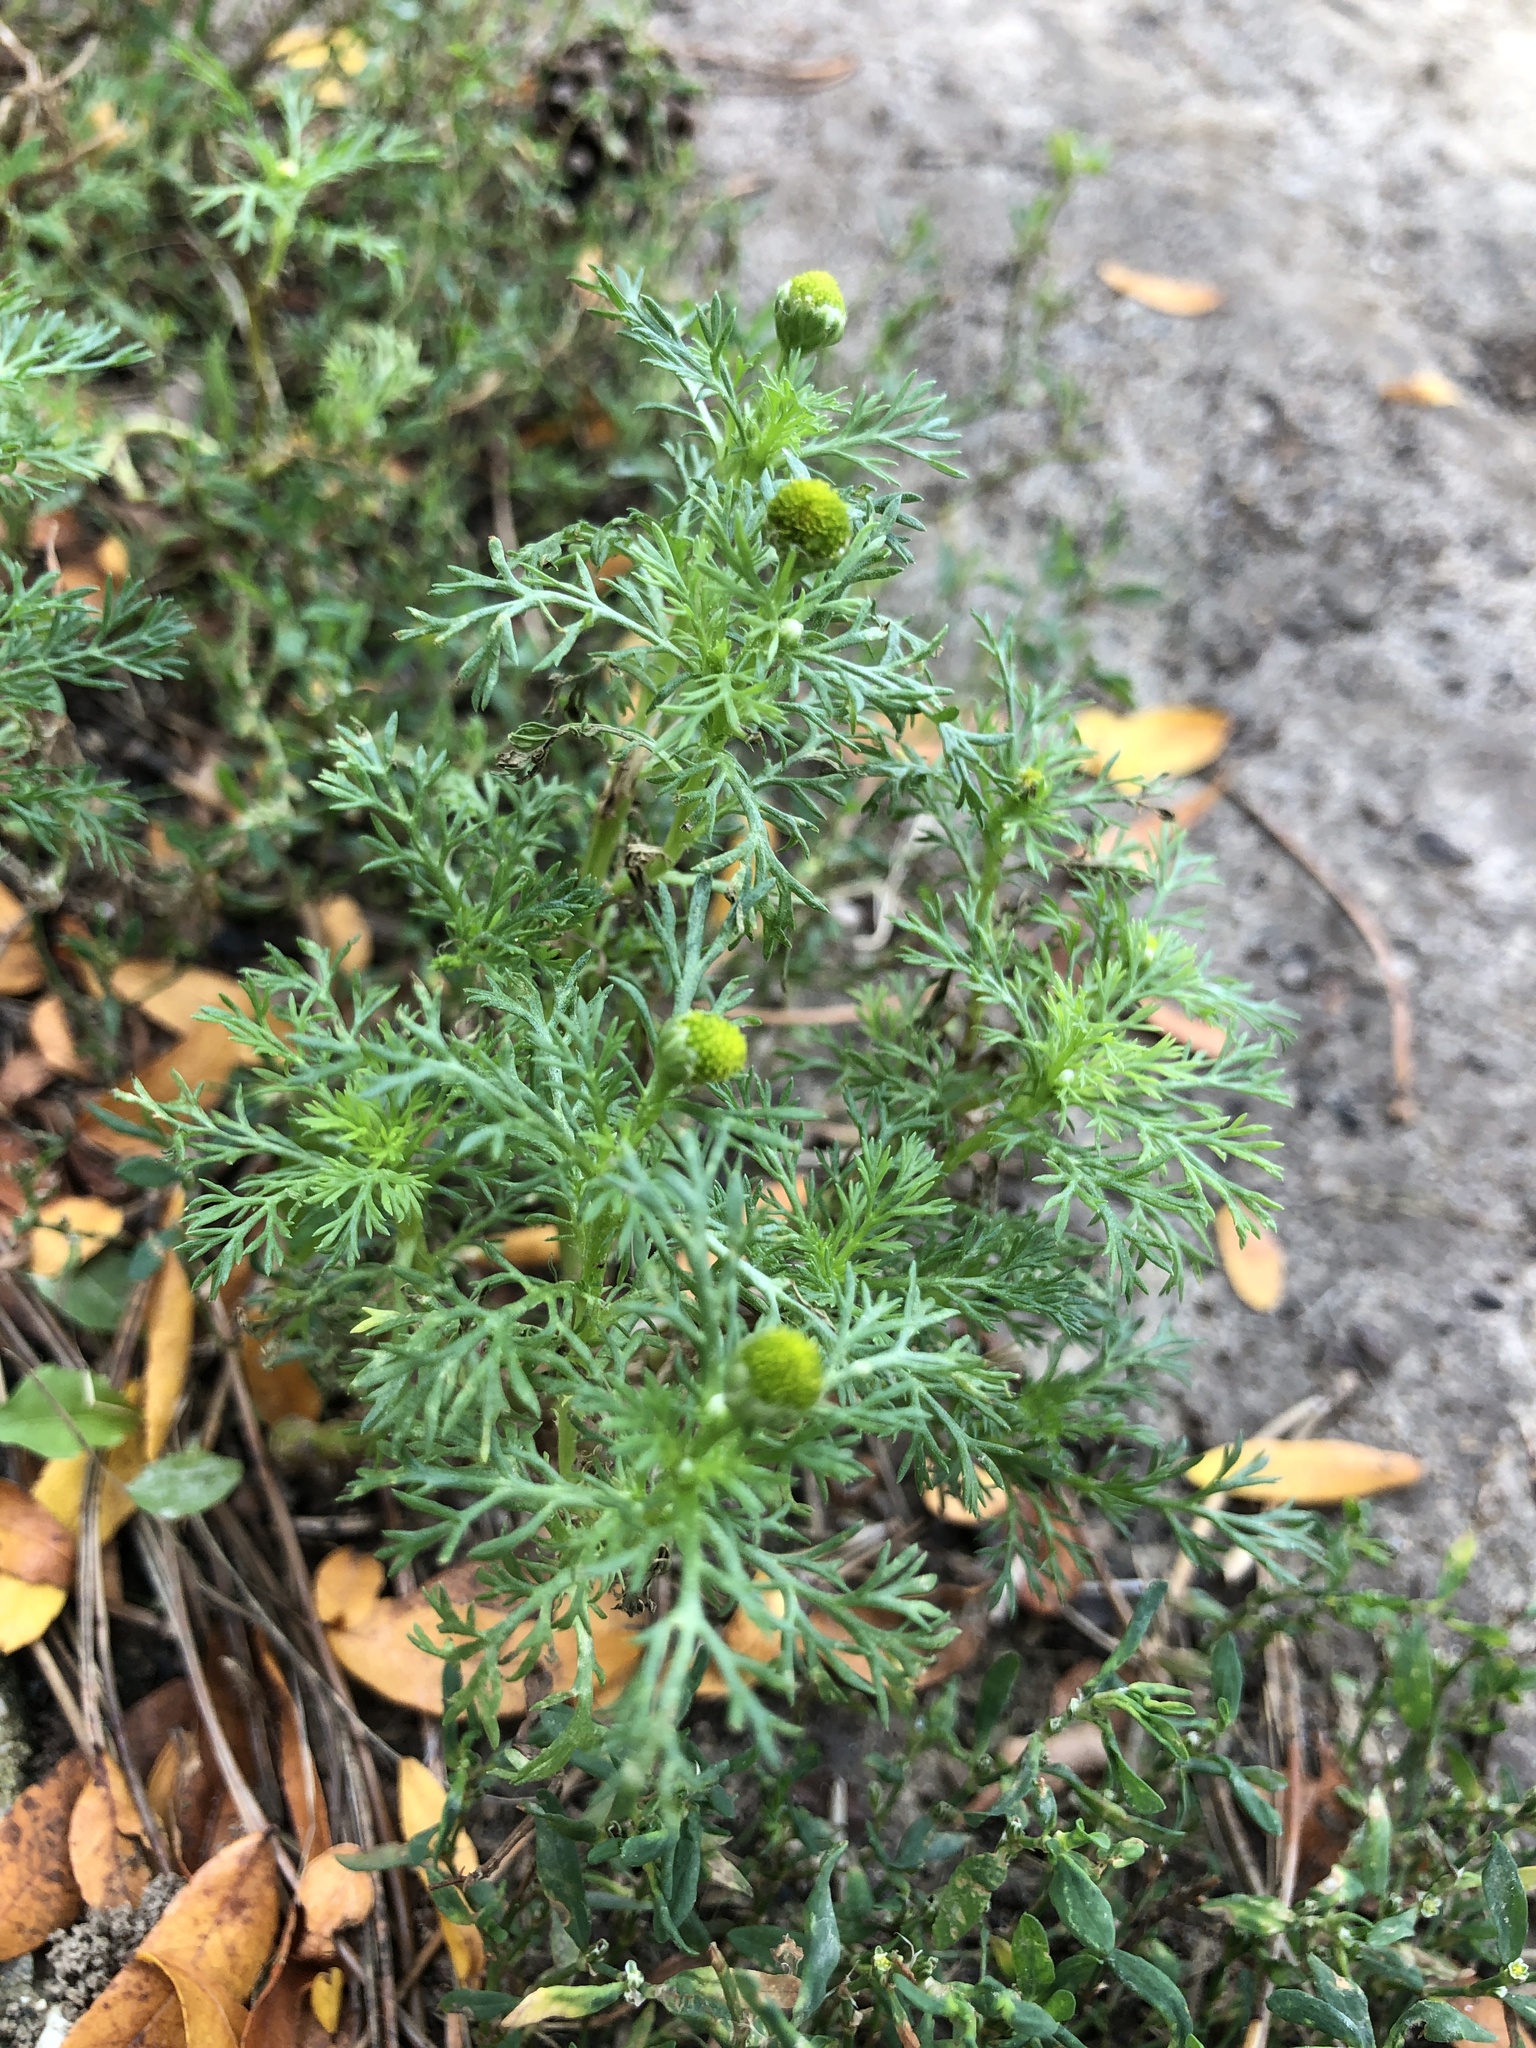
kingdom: Plantae
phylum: Tracheophyta
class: Magnoliopsida
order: Asterales
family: Asteraceae
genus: Matricaria
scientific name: Matricaria discoidea
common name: Disc mayweed
